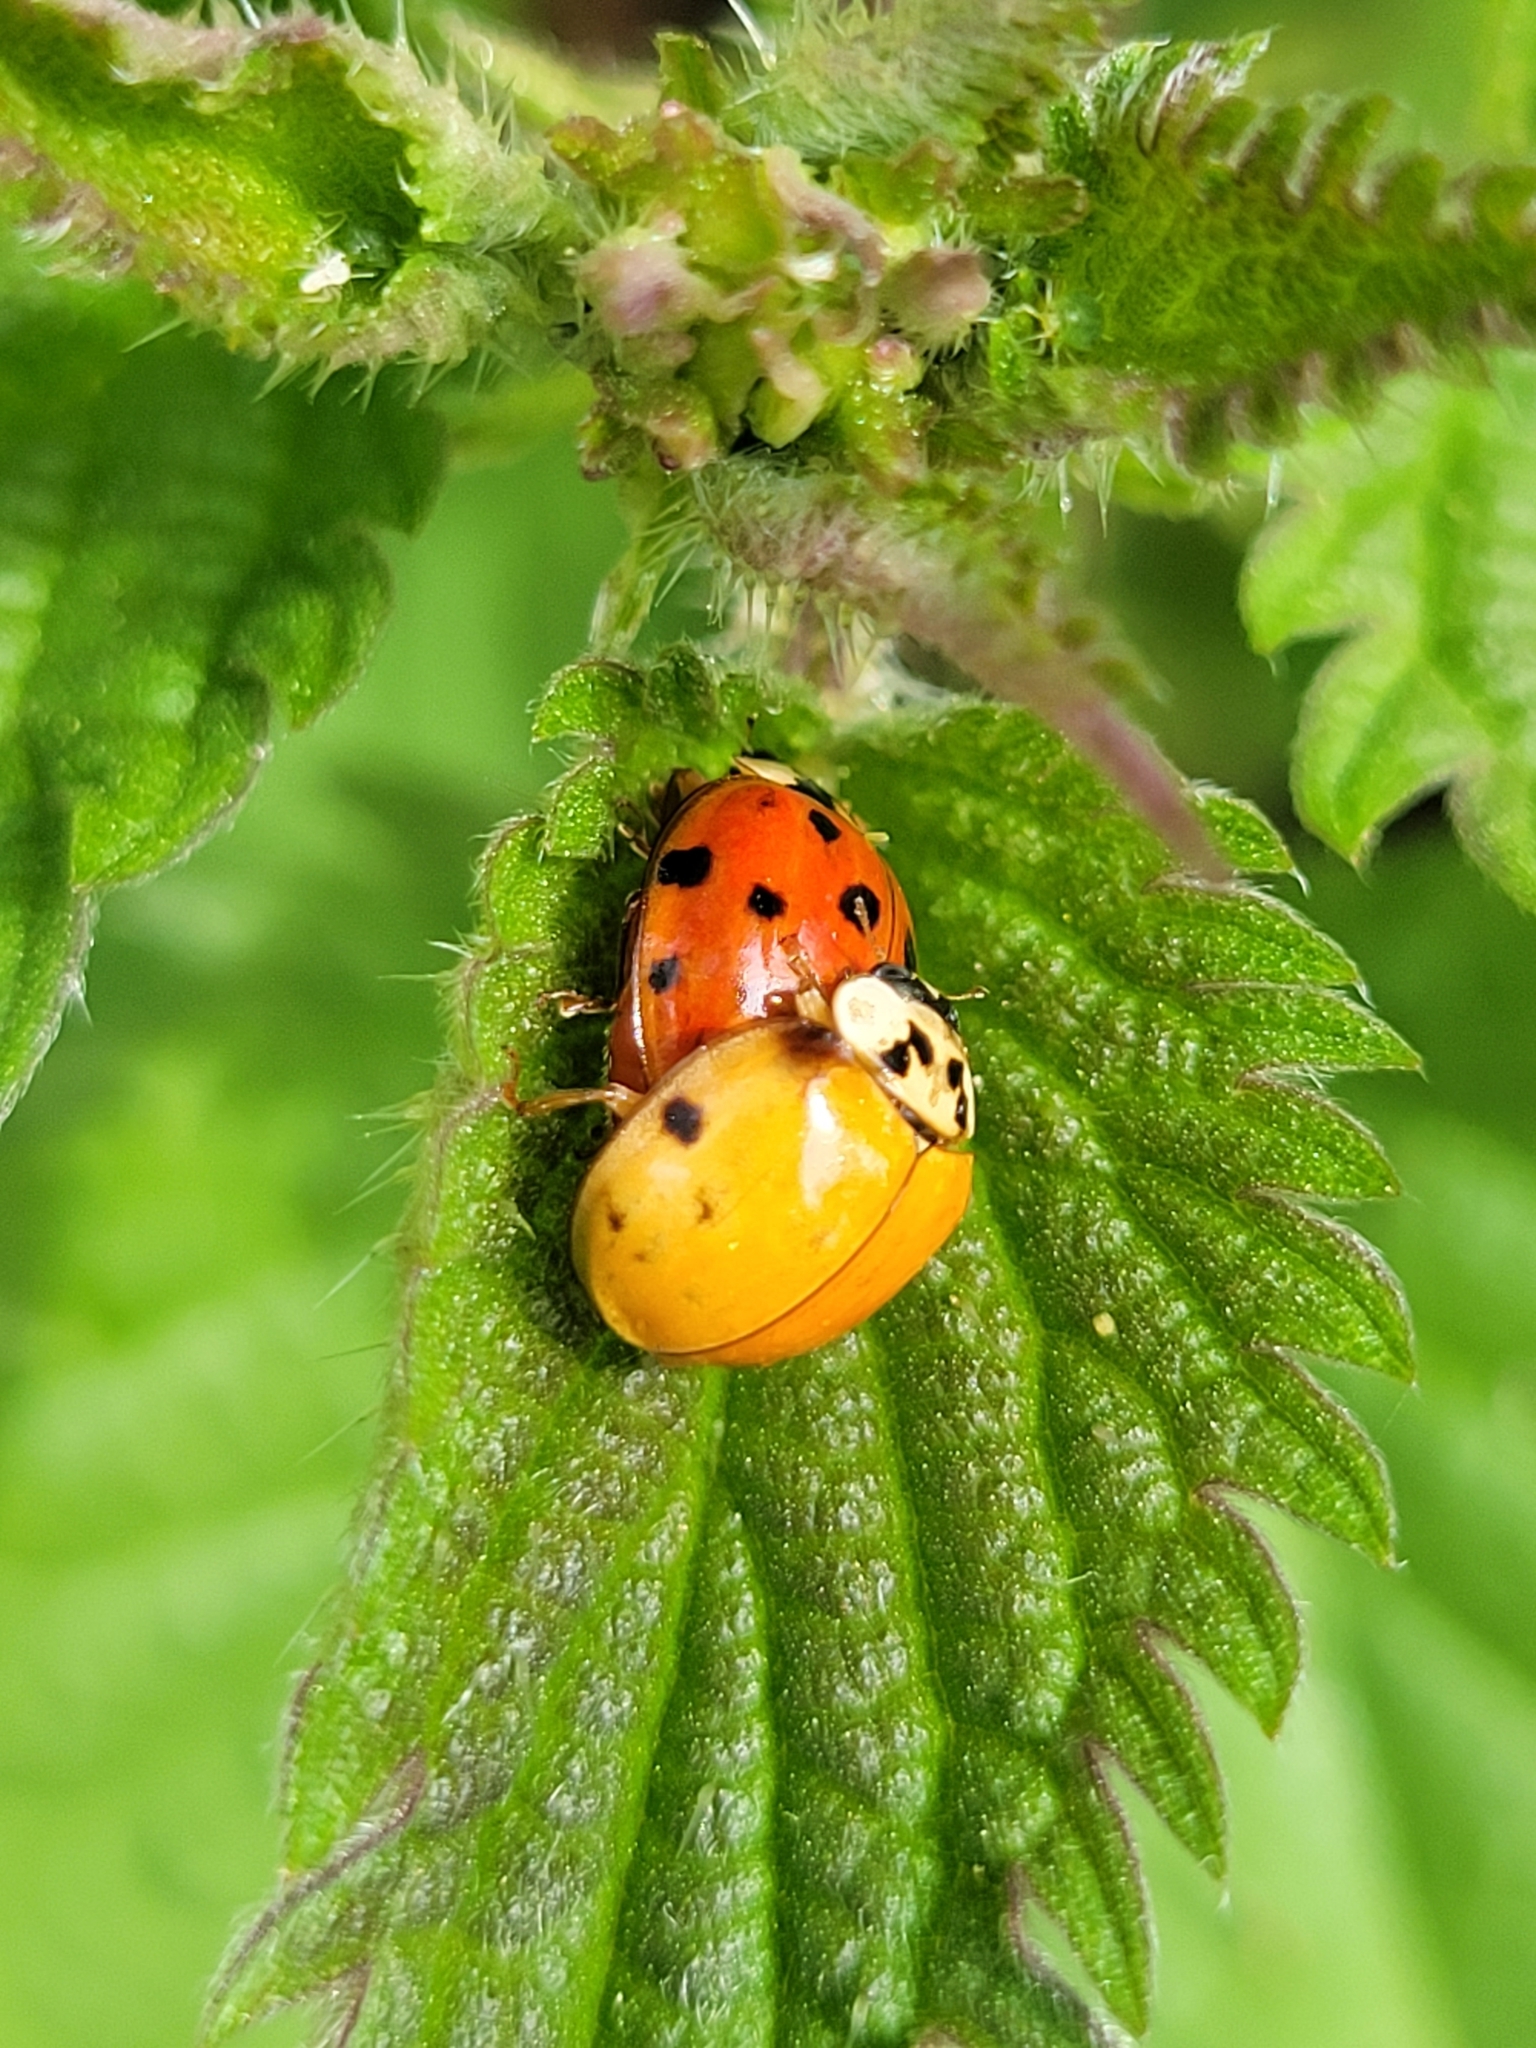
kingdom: Animalia
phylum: Arthropoda
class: Insecta
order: Coleoptera
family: Coccinellidae
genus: Harmonia
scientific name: Harmonia axyridis
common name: Harlequin ladybird
